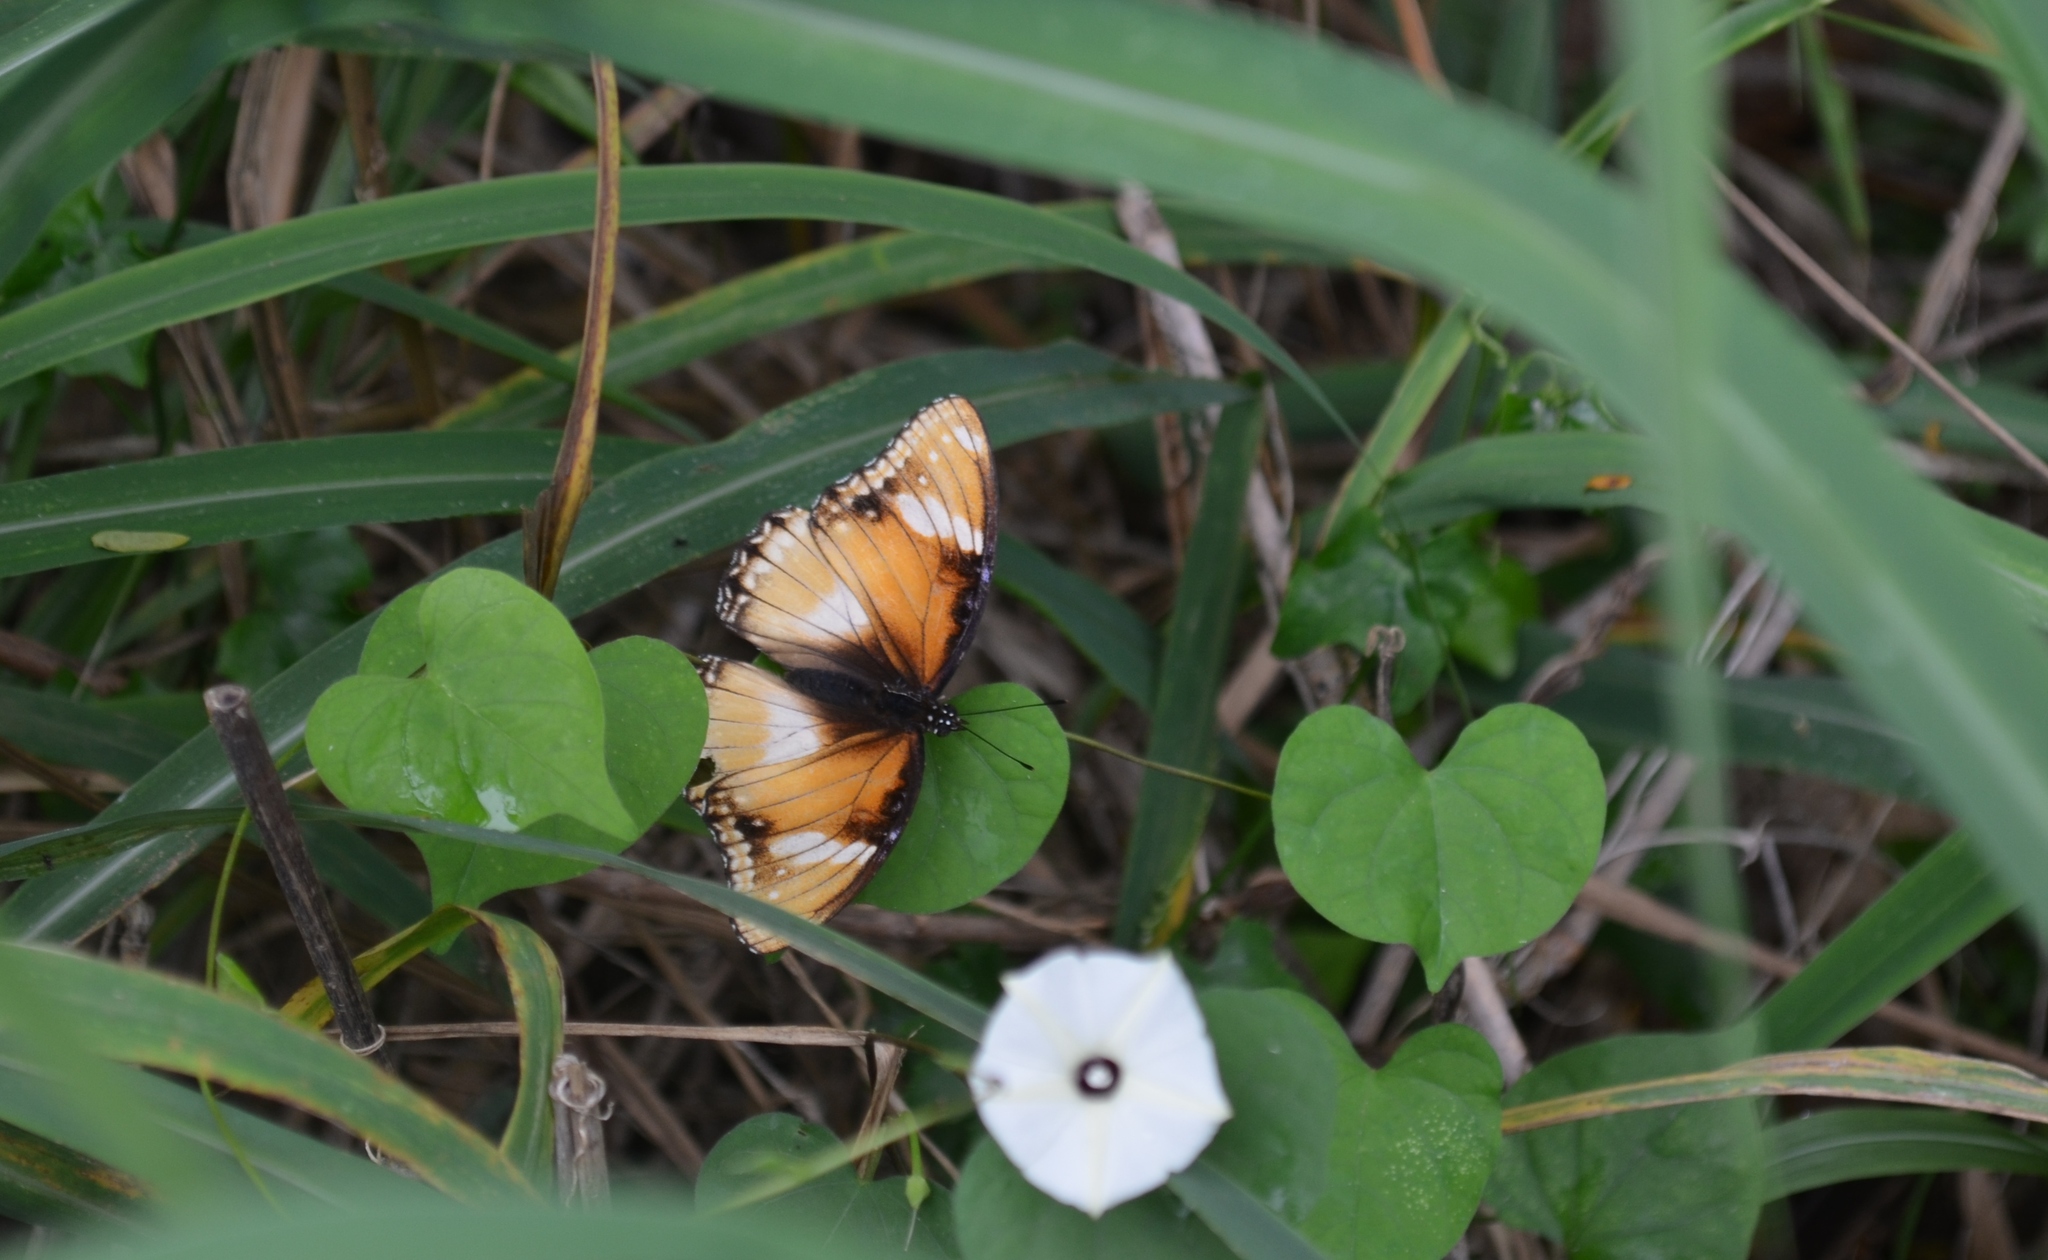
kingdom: Animalia
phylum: Arthropoda
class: Insecta
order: Lepidoptera
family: Nymphalidae
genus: Hypolimnas
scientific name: Hypolimnas antilope
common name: Spotted crow eggfly
